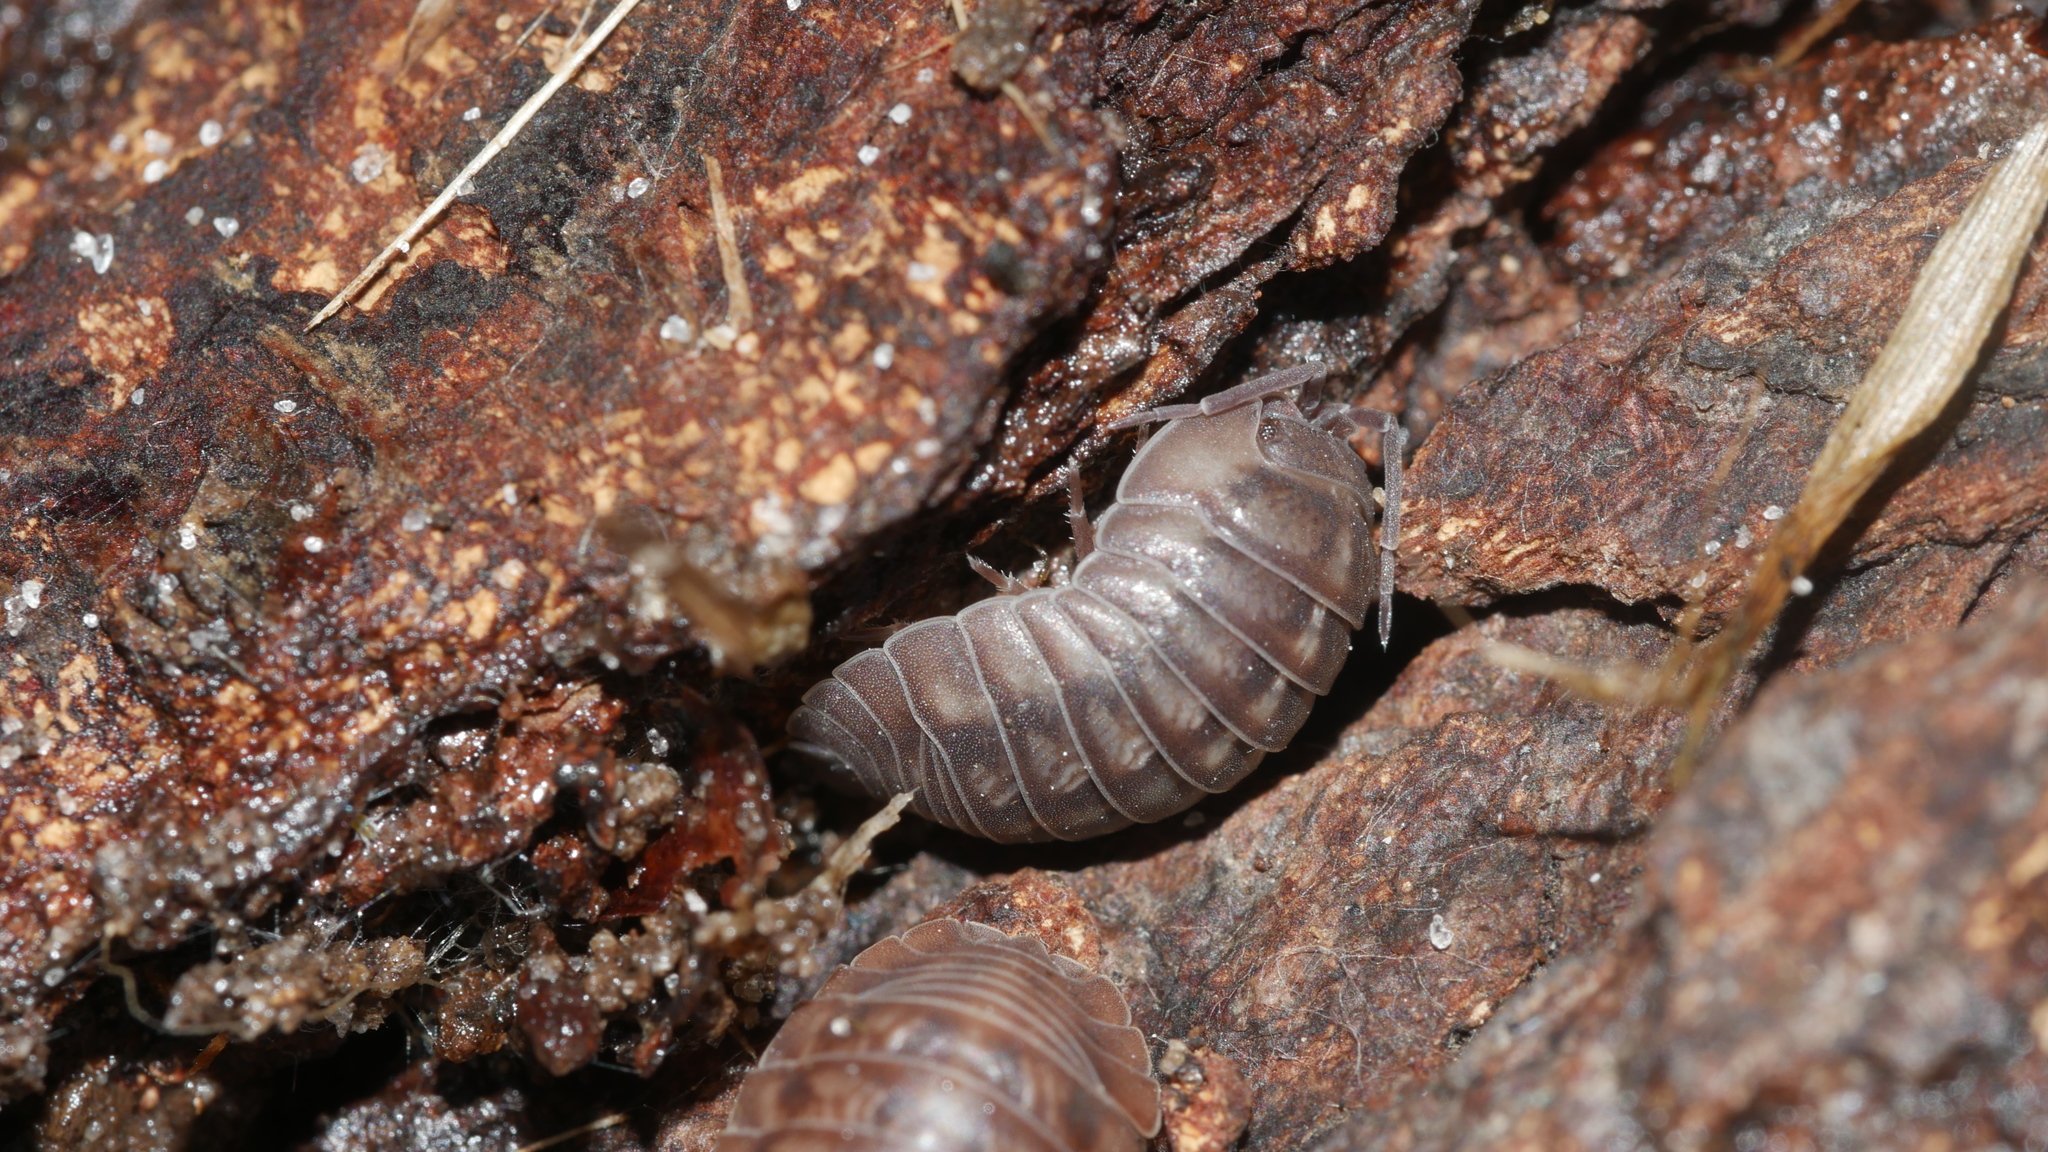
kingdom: Animalia
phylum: Arthropoda
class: Malacostraca
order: Isopoda
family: Armadillidiidae
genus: Armadillidium
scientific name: Armadillidium nasatum
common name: Isopod
